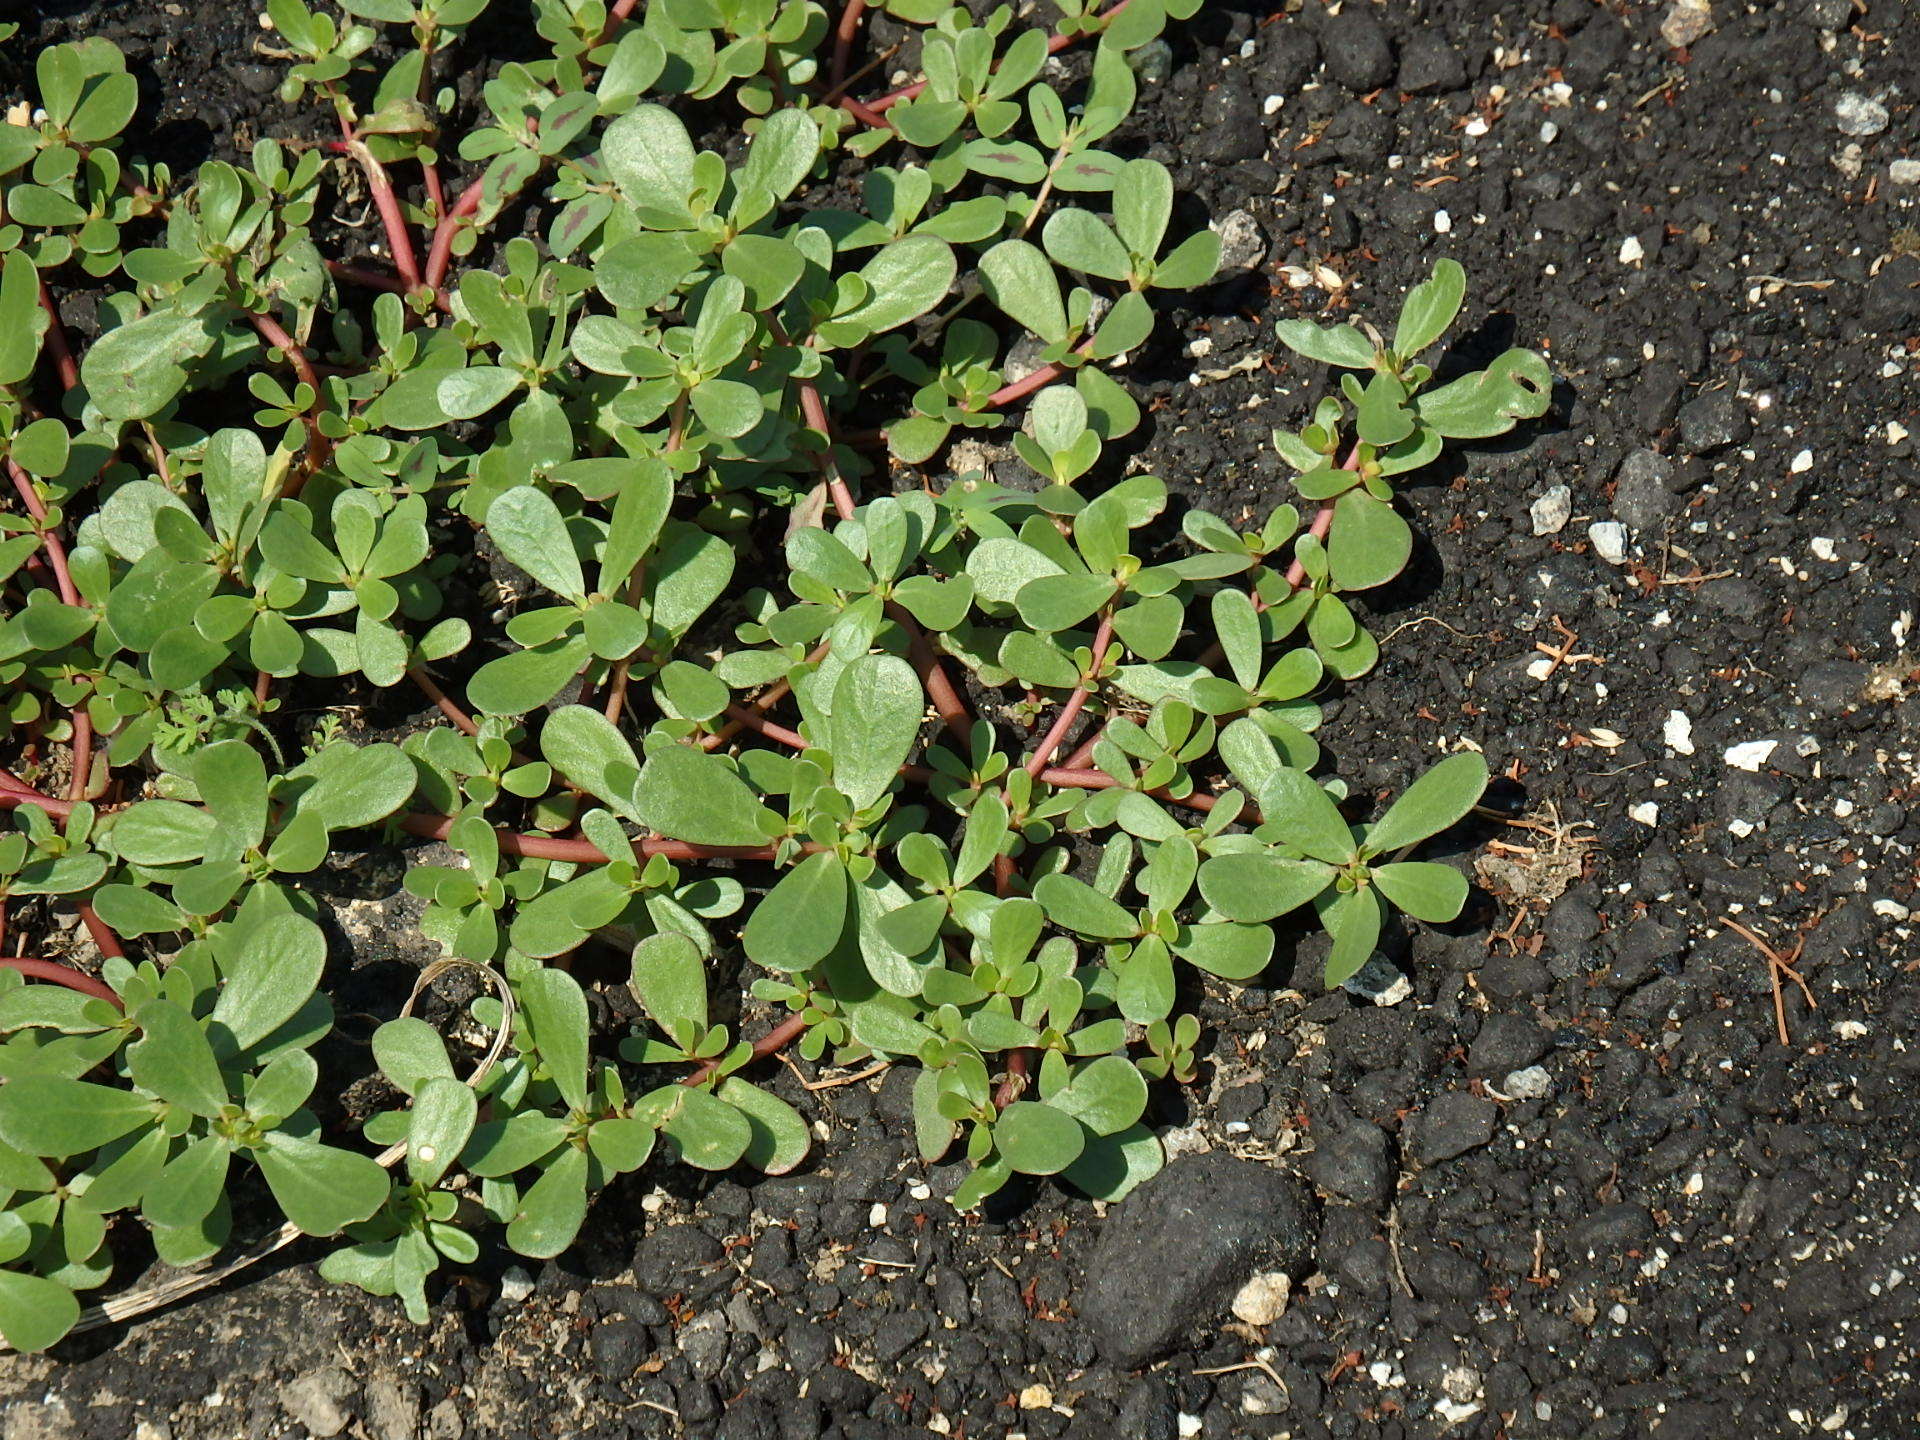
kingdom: Plantae
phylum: Tracheophyta
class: Magnoliopsida
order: Caryophyllales
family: Portulacaceae
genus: Portulaca
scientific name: Portulaca oleracea
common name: Common purslane
